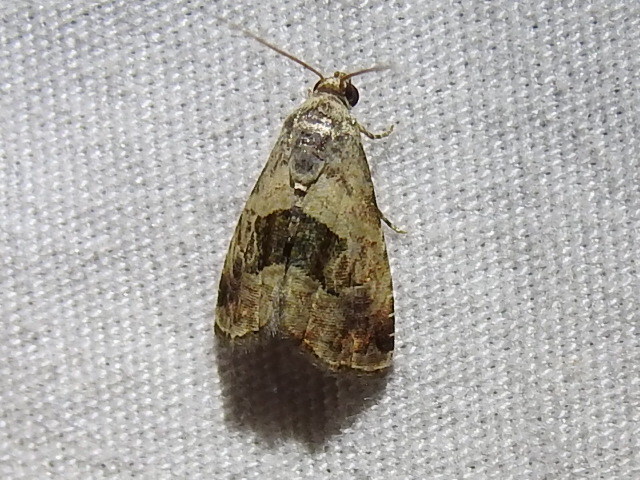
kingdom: Animalia
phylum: Arthropoda
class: Insecta
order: Lepidoptera
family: Noctuidae
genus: Tripudia
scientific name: Tripudia quadrifera
